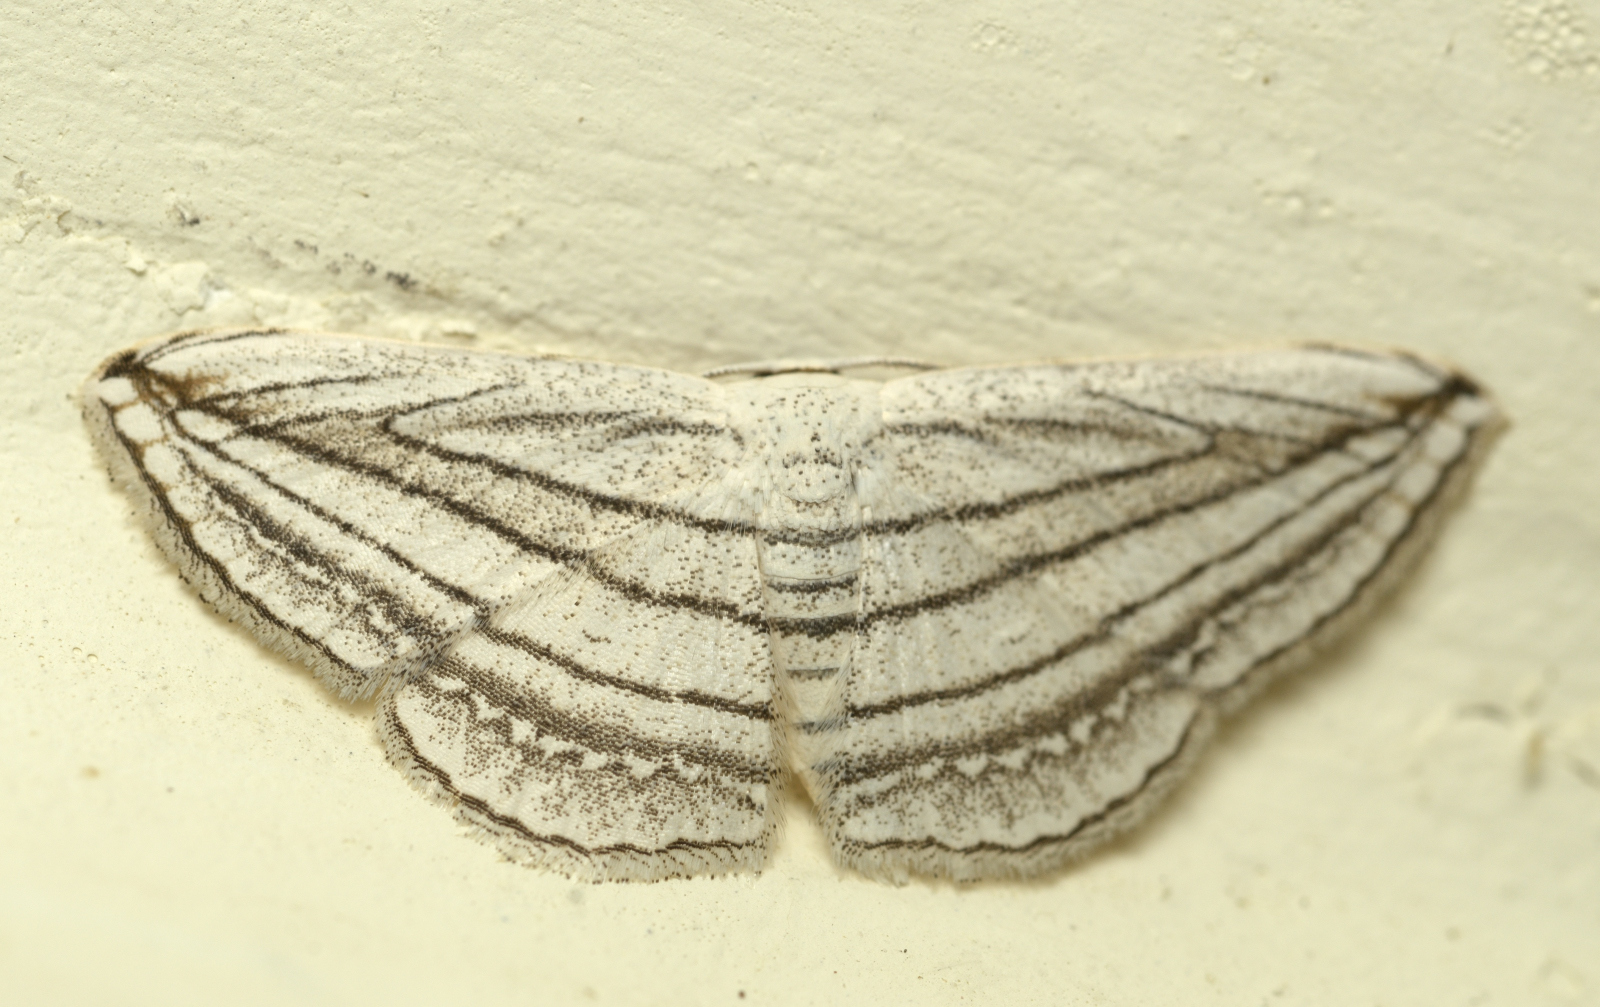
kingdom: Animalia
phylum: Arthropoda
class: Insecta
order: Lepidoptera
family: Geometridae
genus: Scopula
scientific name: Scopula opicata
